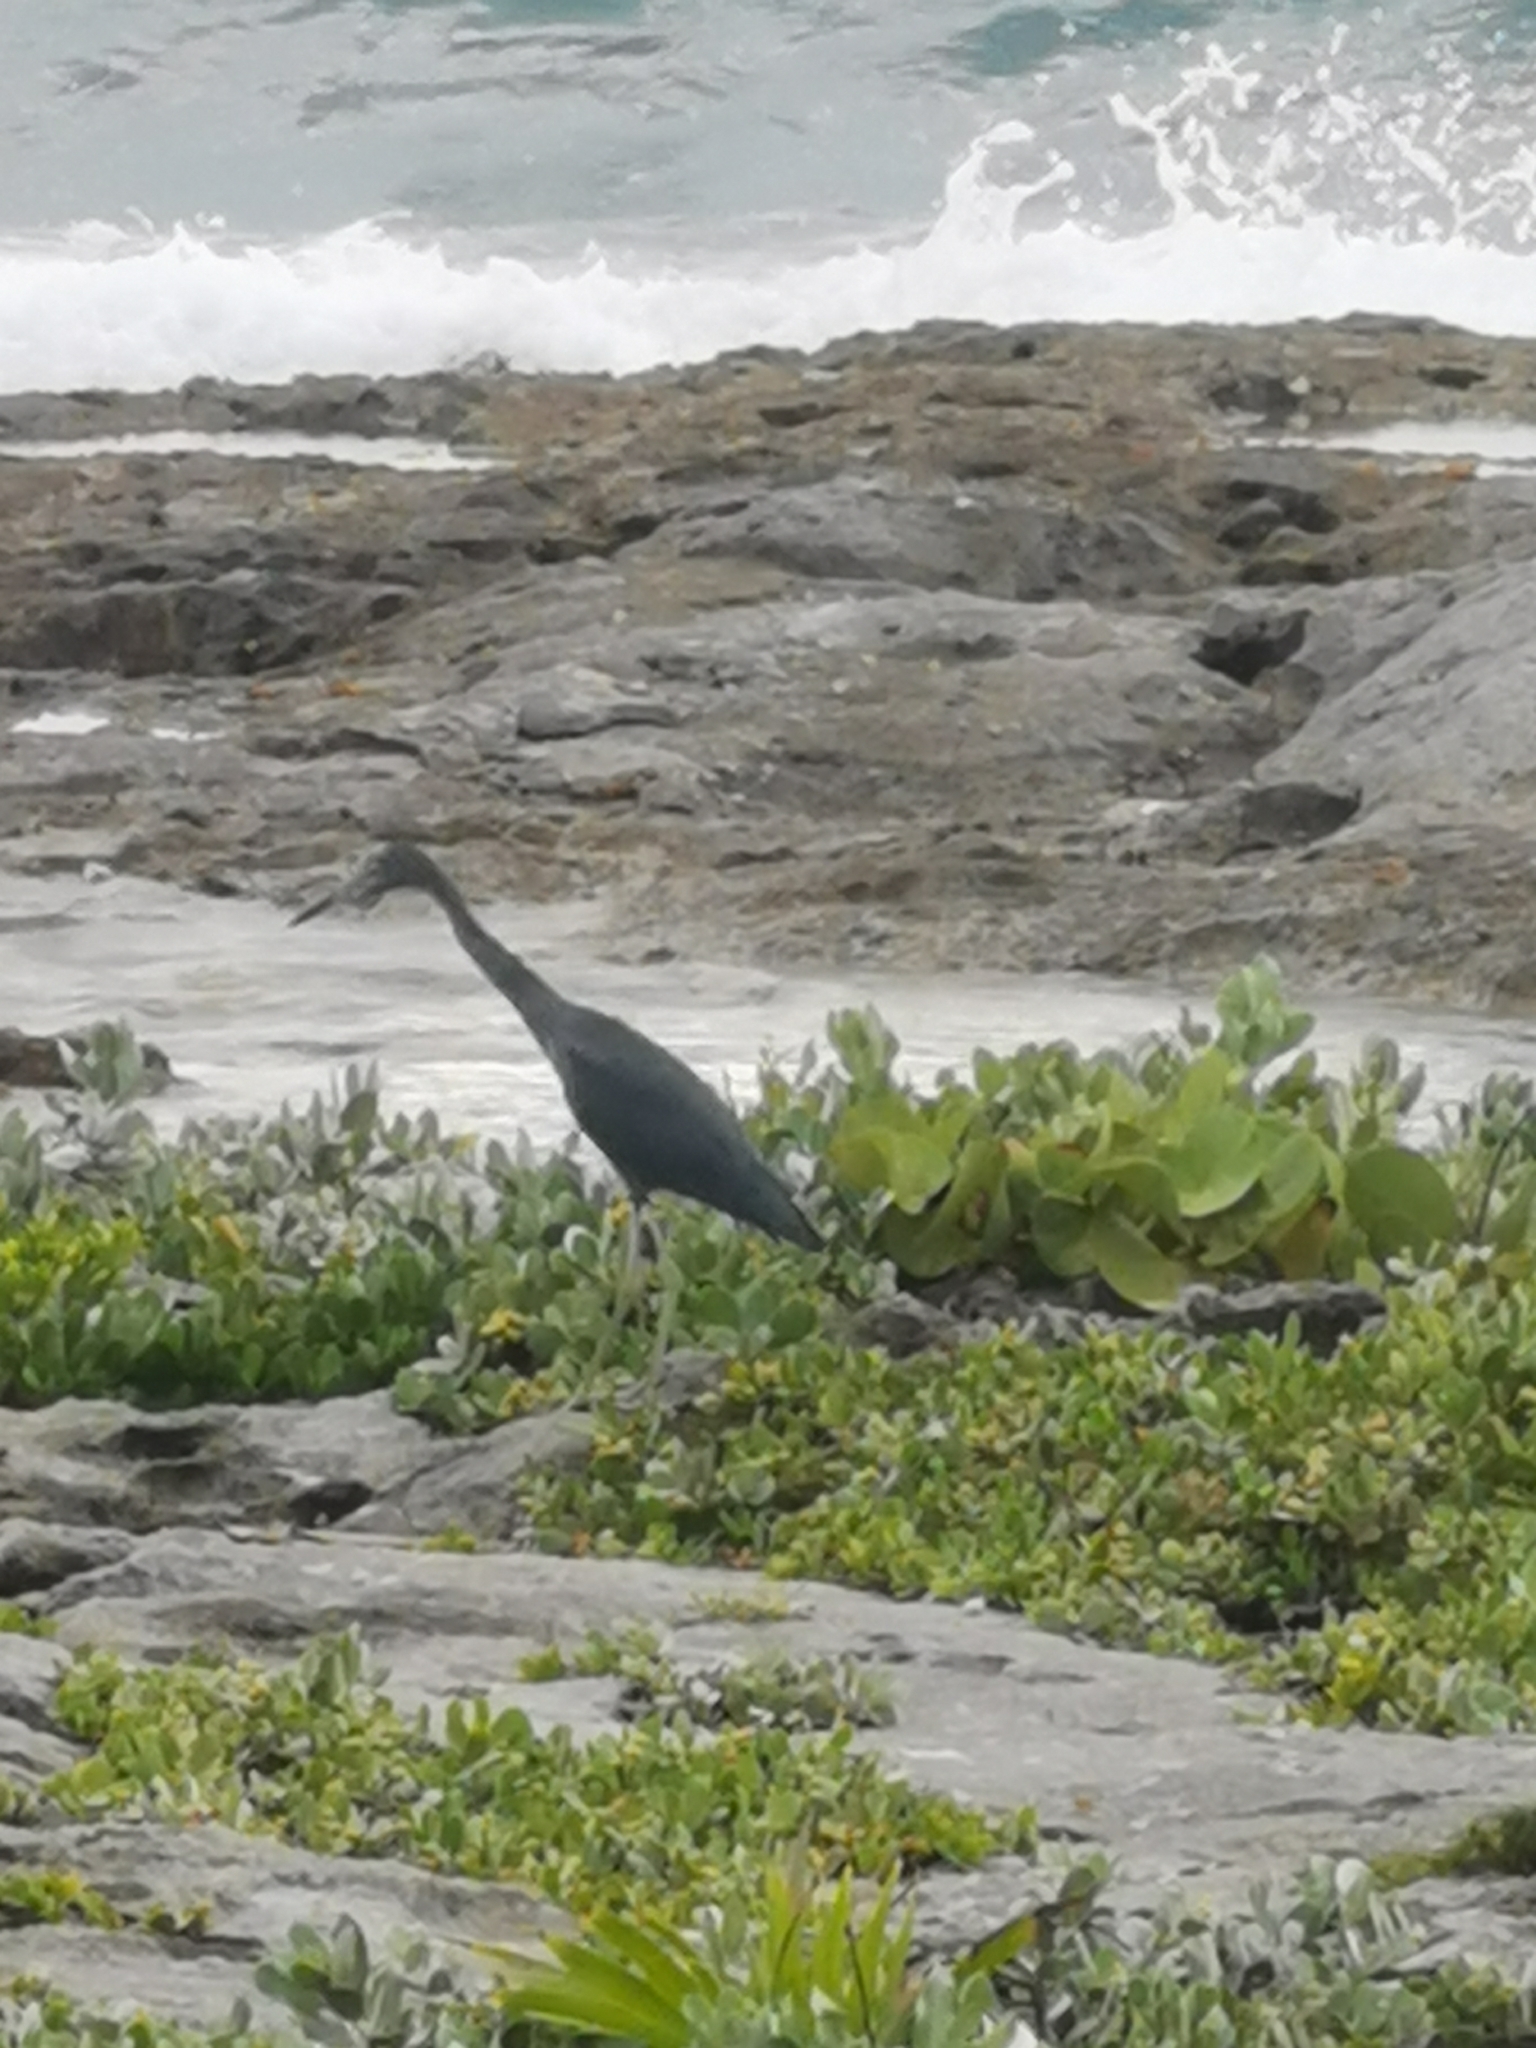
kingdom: Animalia
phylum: Chordata
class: Aves
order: Pelecaniformes
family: Ardeidae
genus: Egretta
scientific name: Egretta caerulea
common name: Little blue heron
